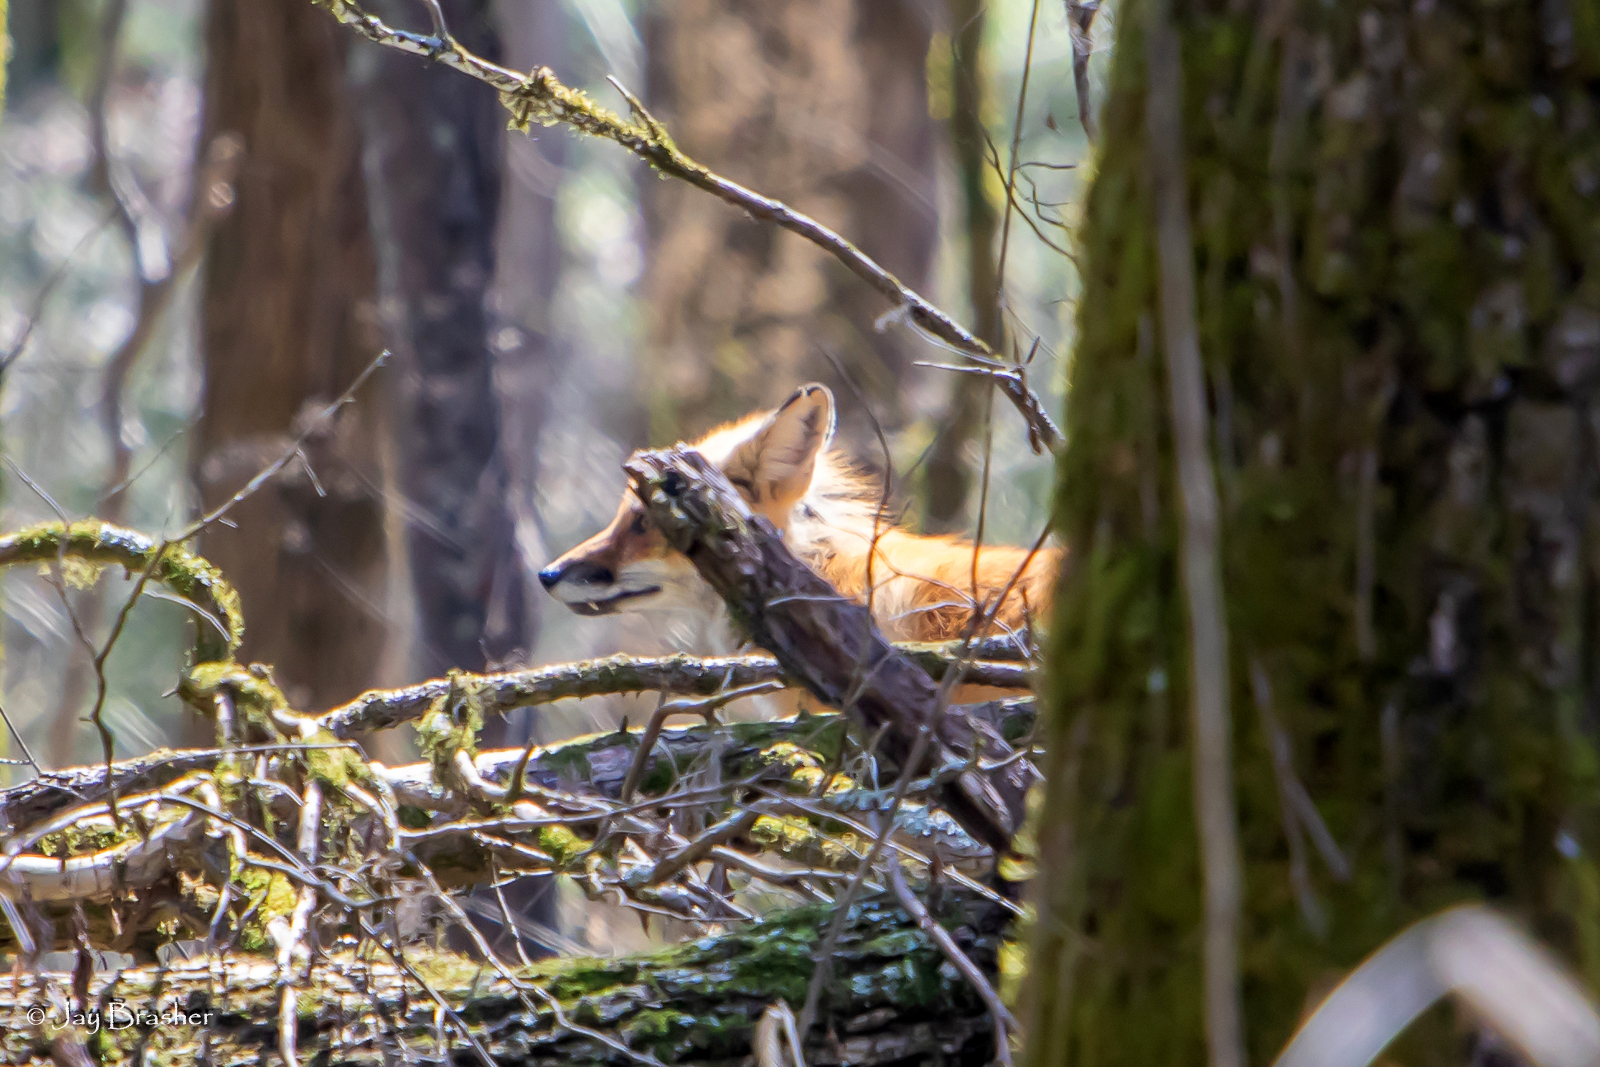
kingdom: Animalia
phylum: Chordata
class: Mammalia
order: Carnivora
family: Canidae
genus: Vulpes
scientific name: Vulpes vulpes
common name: Red fox
